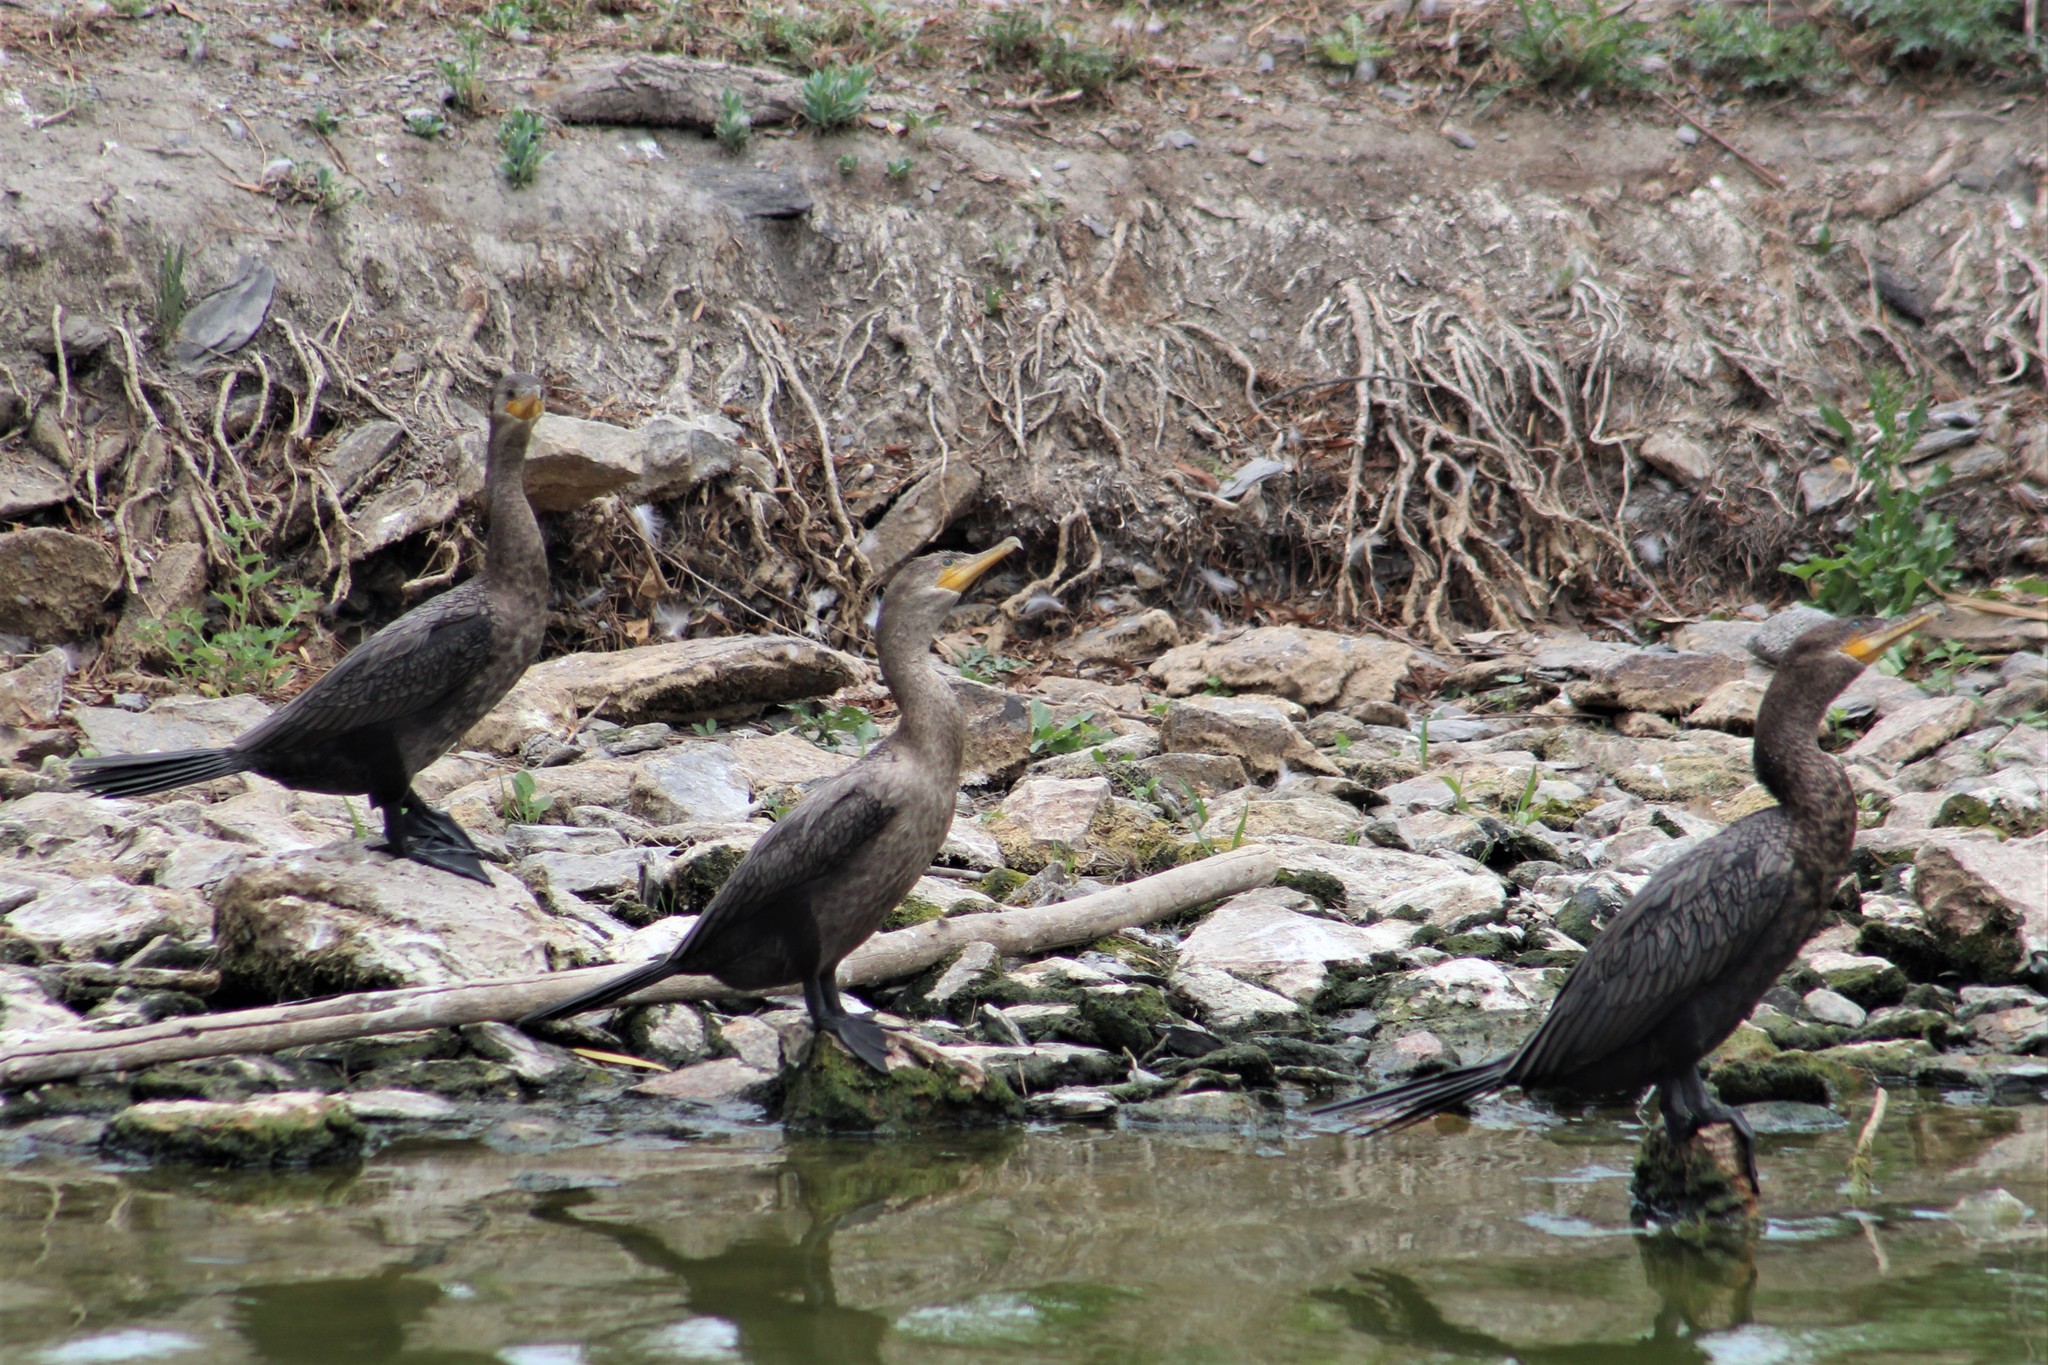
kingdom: Animalia
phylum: Chordata
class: Aves
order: Suliformes
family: Phalacrocoracidae
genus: Phalacrocorax
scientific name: Phalacrocorax brasilianus
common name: Neotropic cormorant
